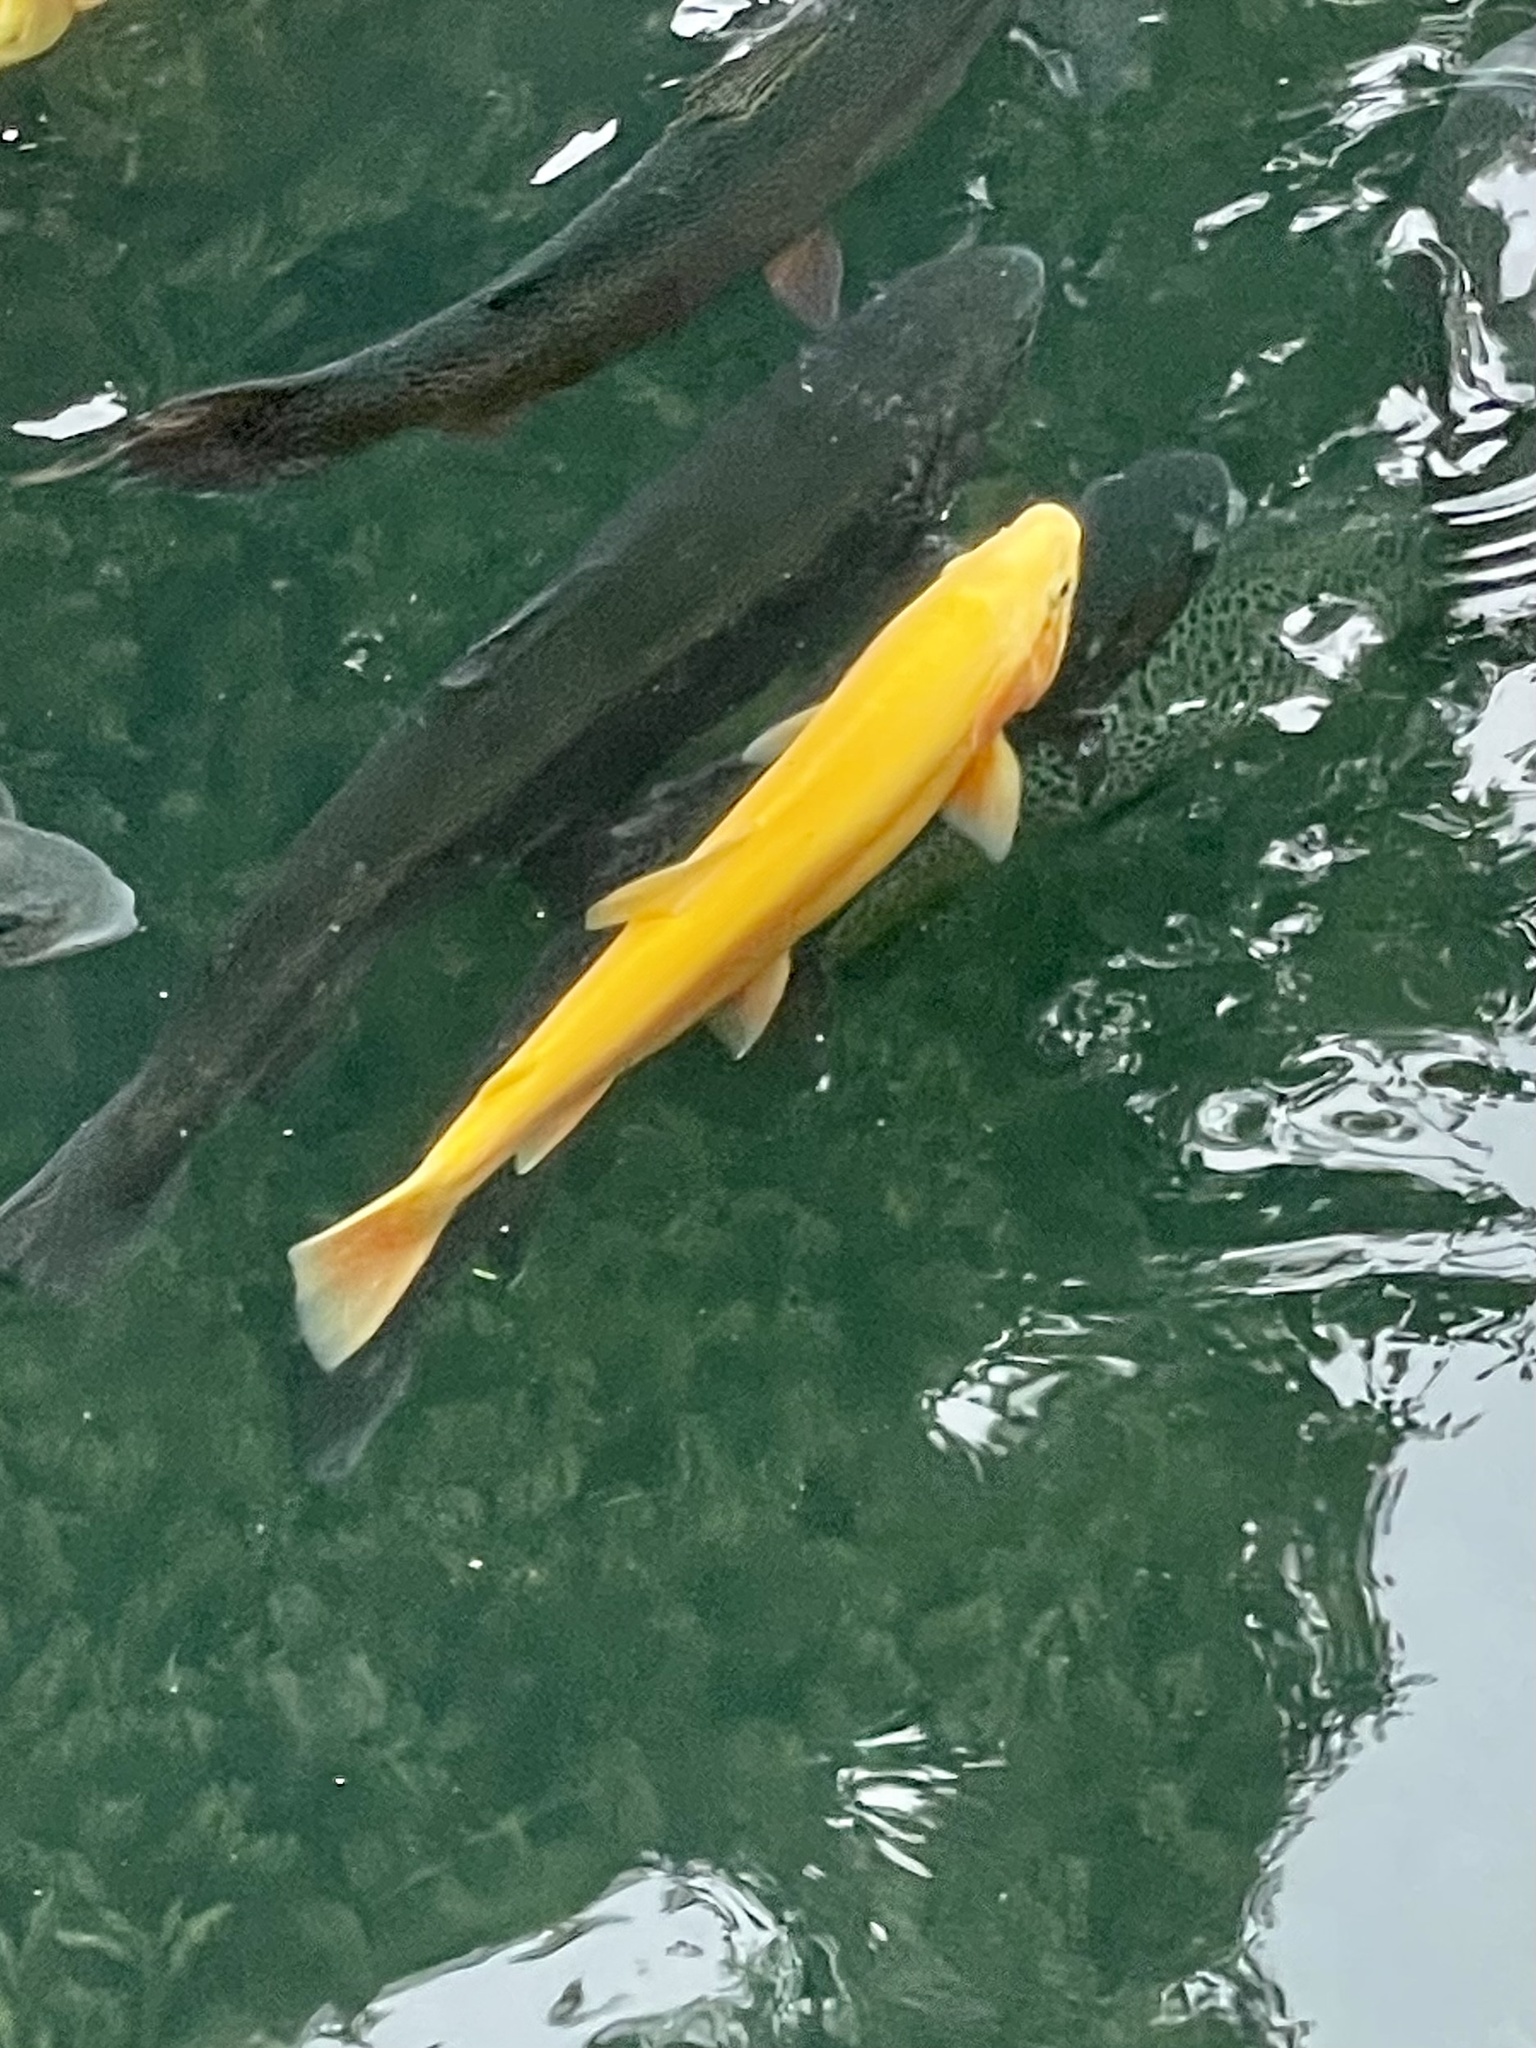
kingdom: Animalia
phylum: Chordata
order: Salmoniformes
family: Salmonidae
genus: Oncorhynchus
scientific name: Oncorhynchus mykiss
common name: Rainbow trout
